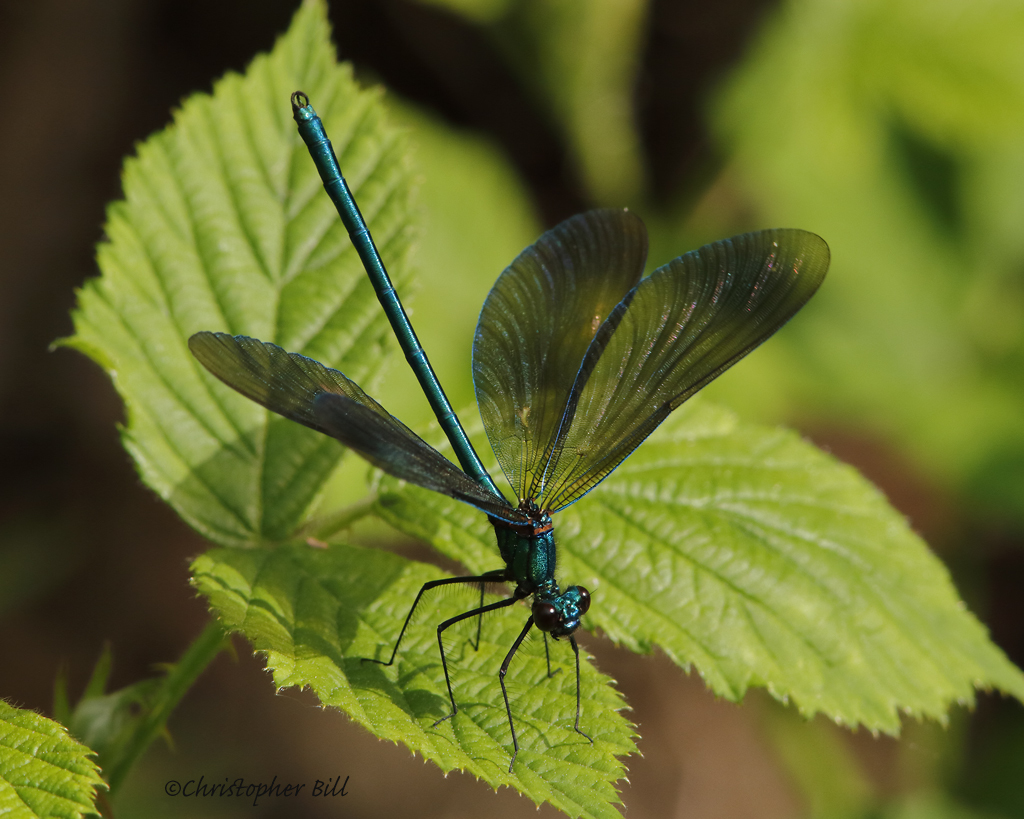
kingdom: Animalia
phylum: Arthropoda
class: Insecta
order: Odonata
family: Calopterygidae
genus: Calopteryx
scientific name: Calopteryx virgo
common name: Beautiful demoiselle
